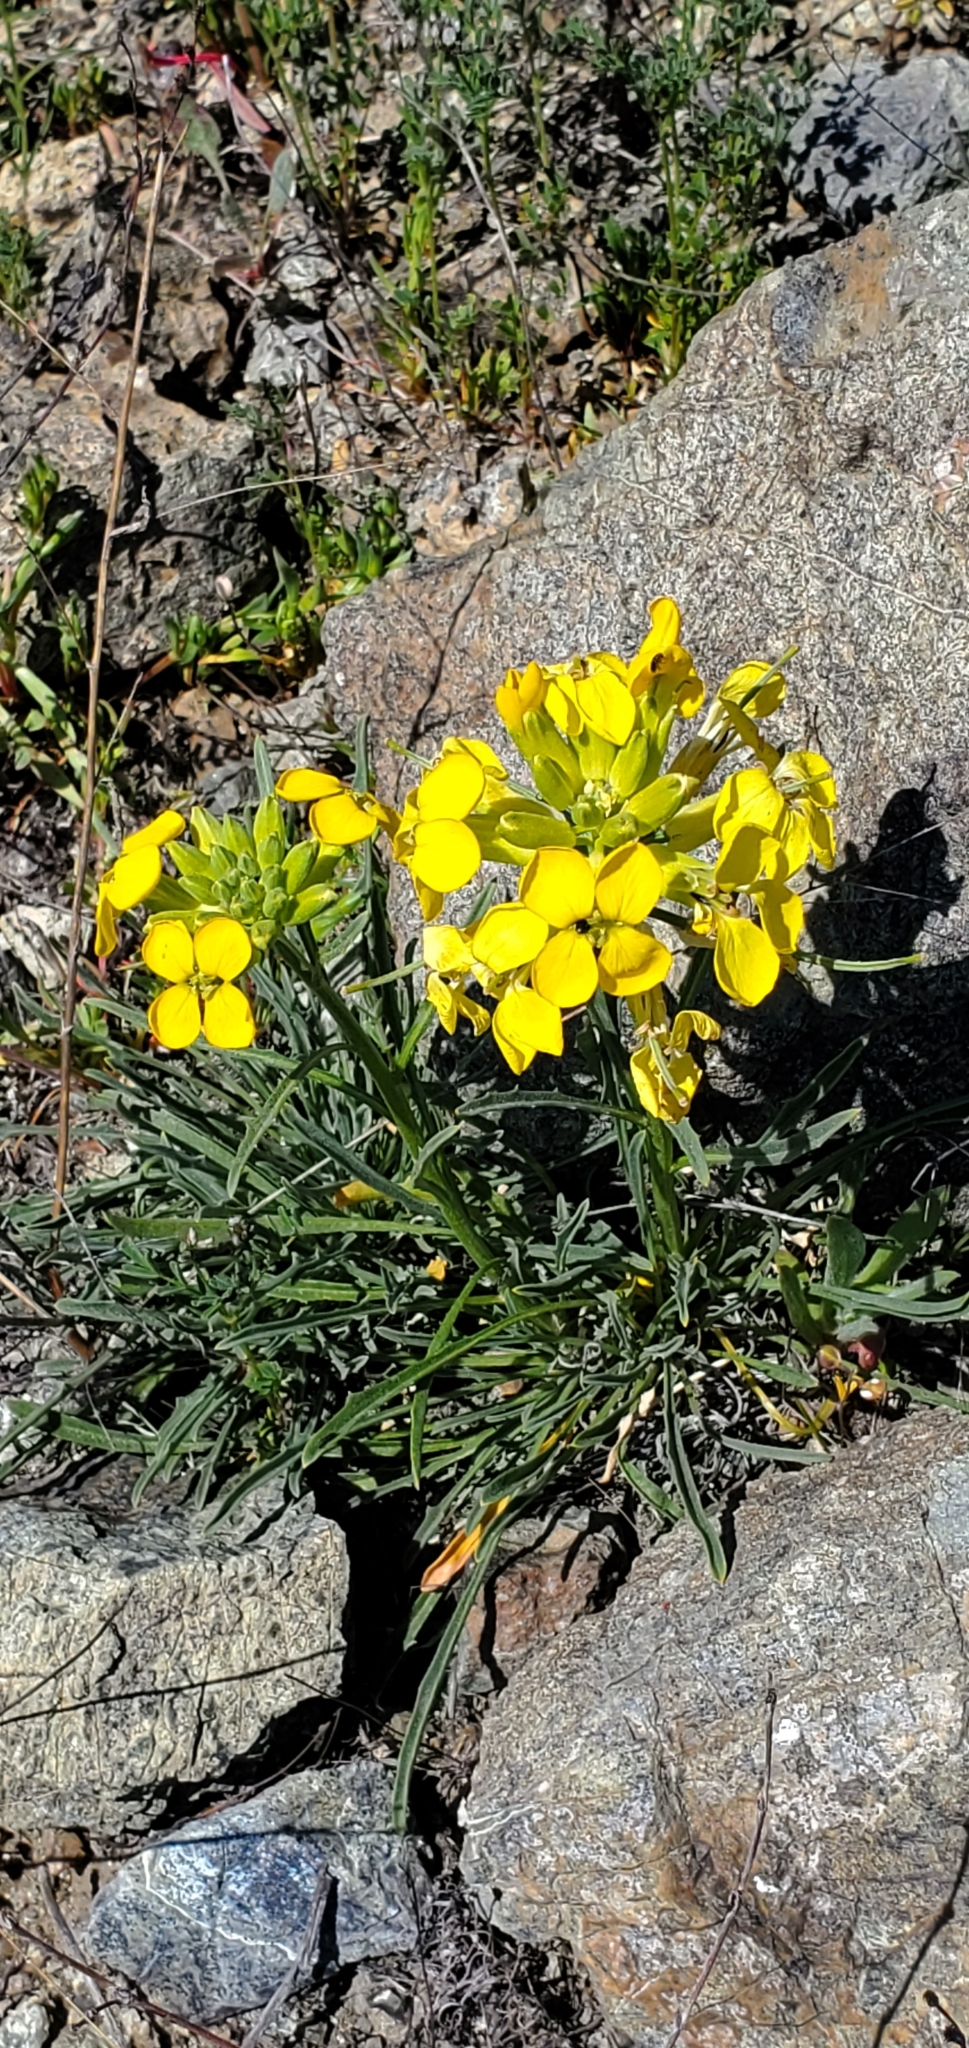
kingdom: Plantae
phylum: Tracheophyta
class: Magnoliopsida
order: Brassicales
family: Brassicaceae
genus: Erysimum
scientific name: Erysimum franciscanum
